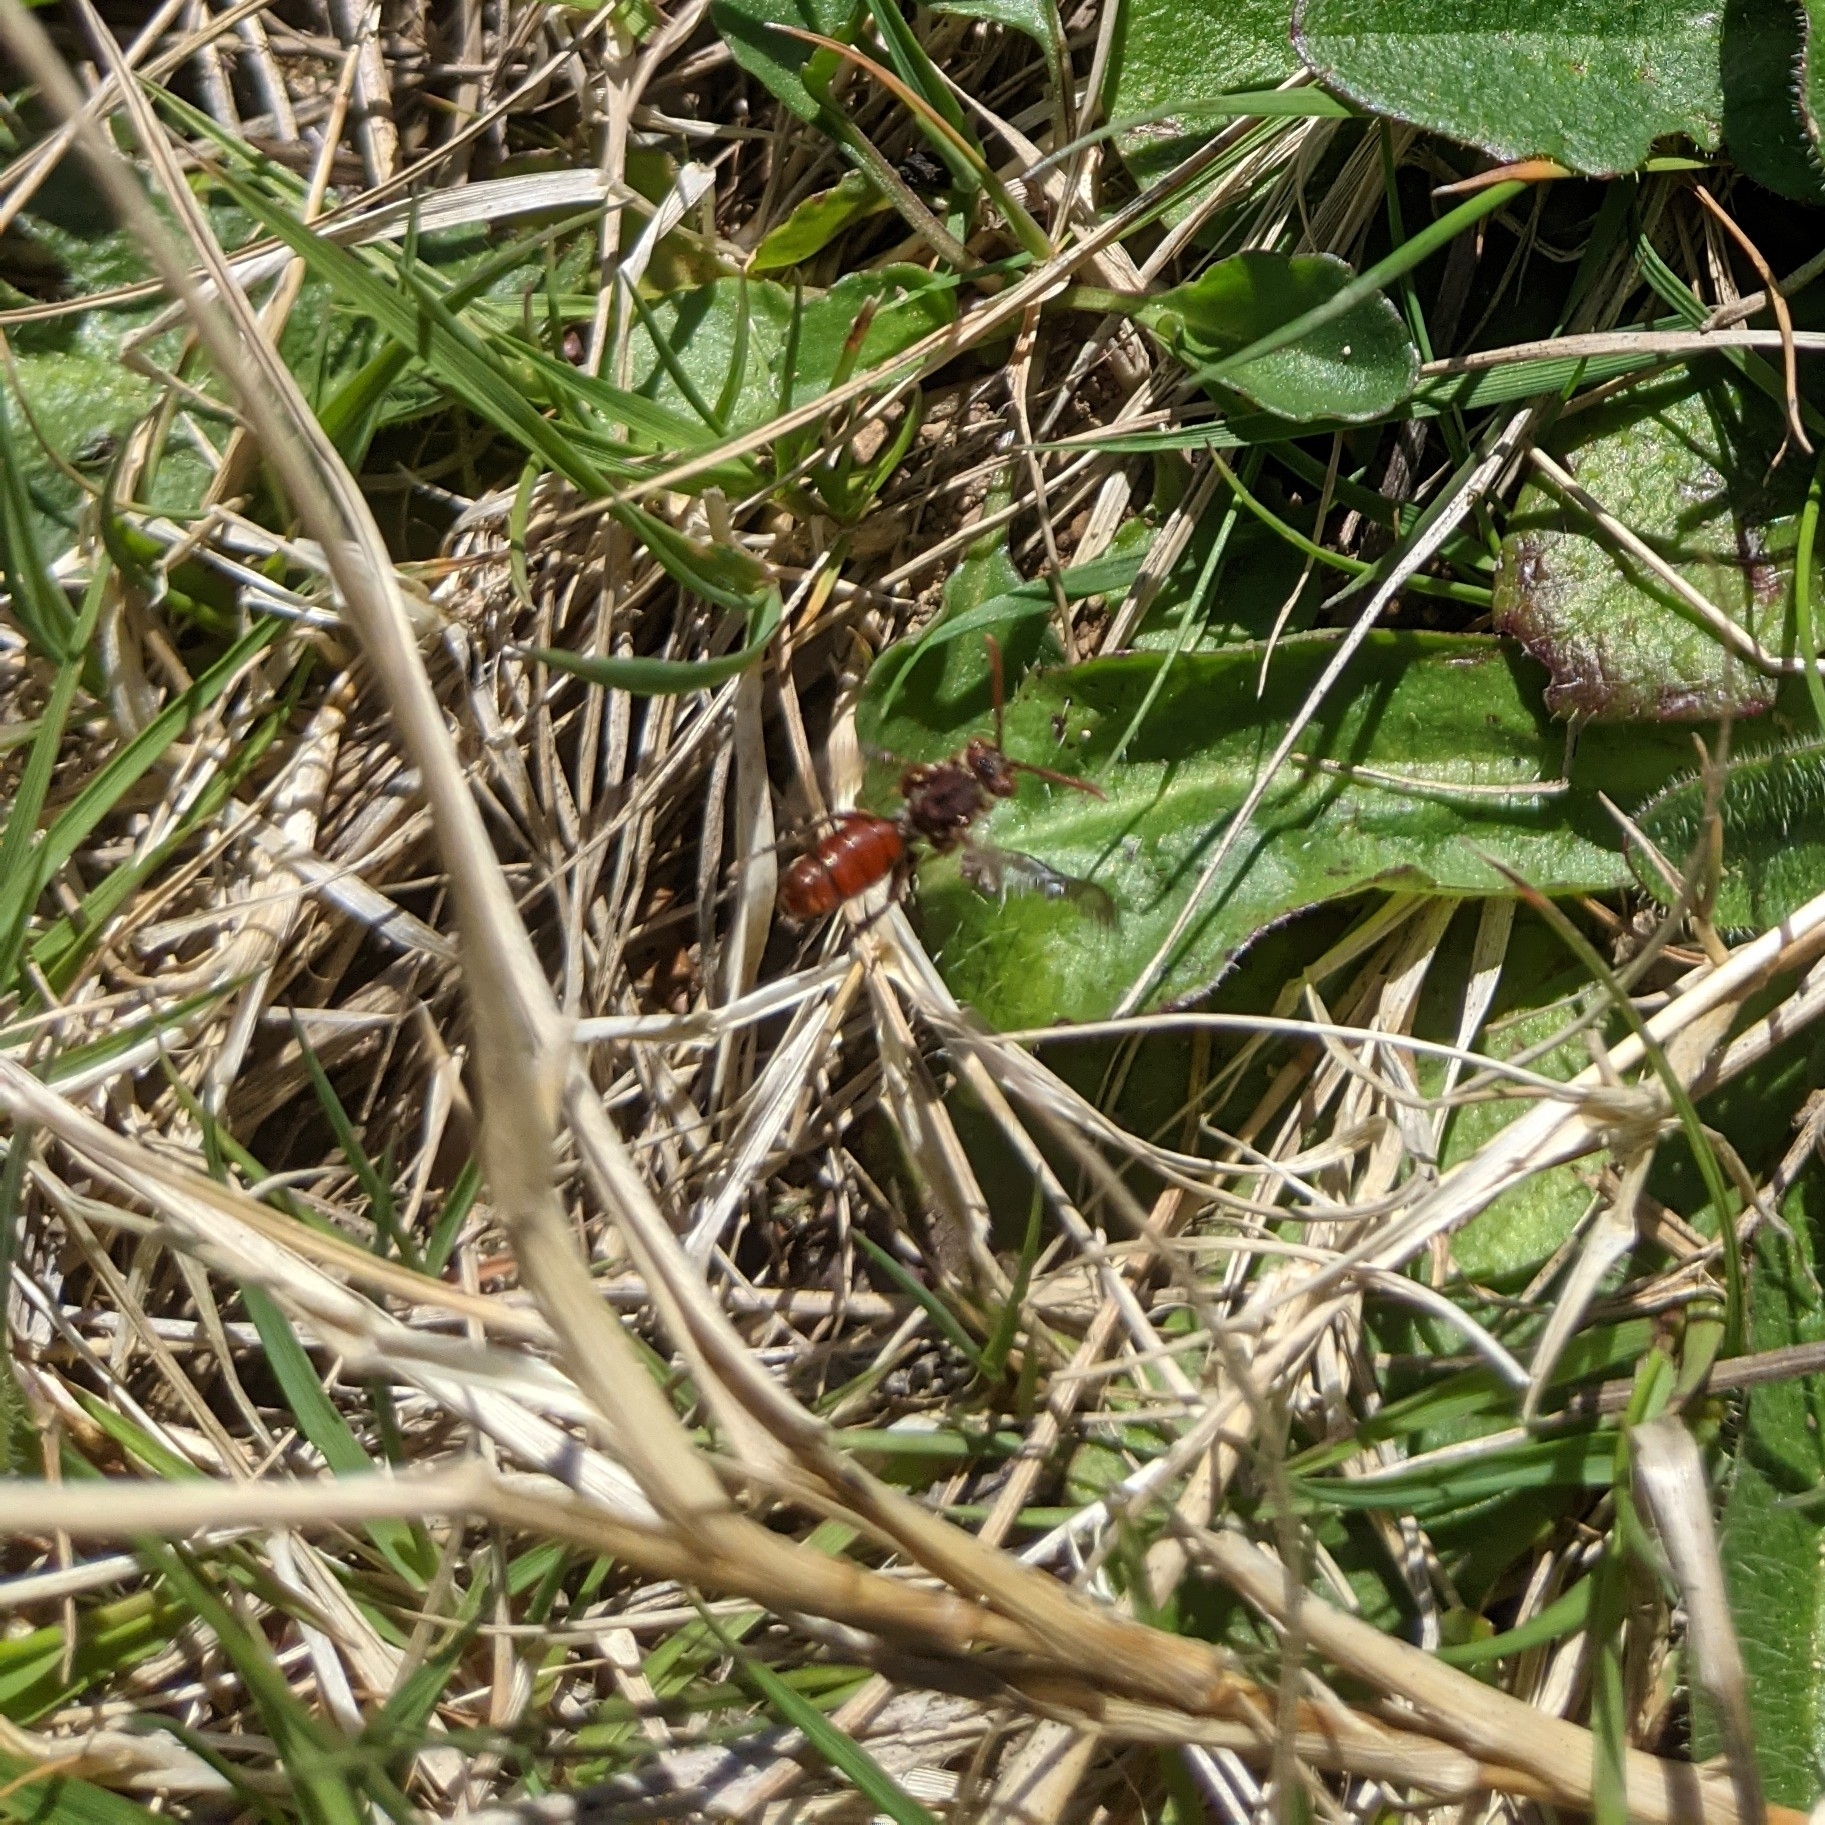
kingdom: Animalia
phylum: Arthropoda
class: Insecta
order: Hymenoptera
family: Apidae
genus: Nomada
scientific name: Nomada
